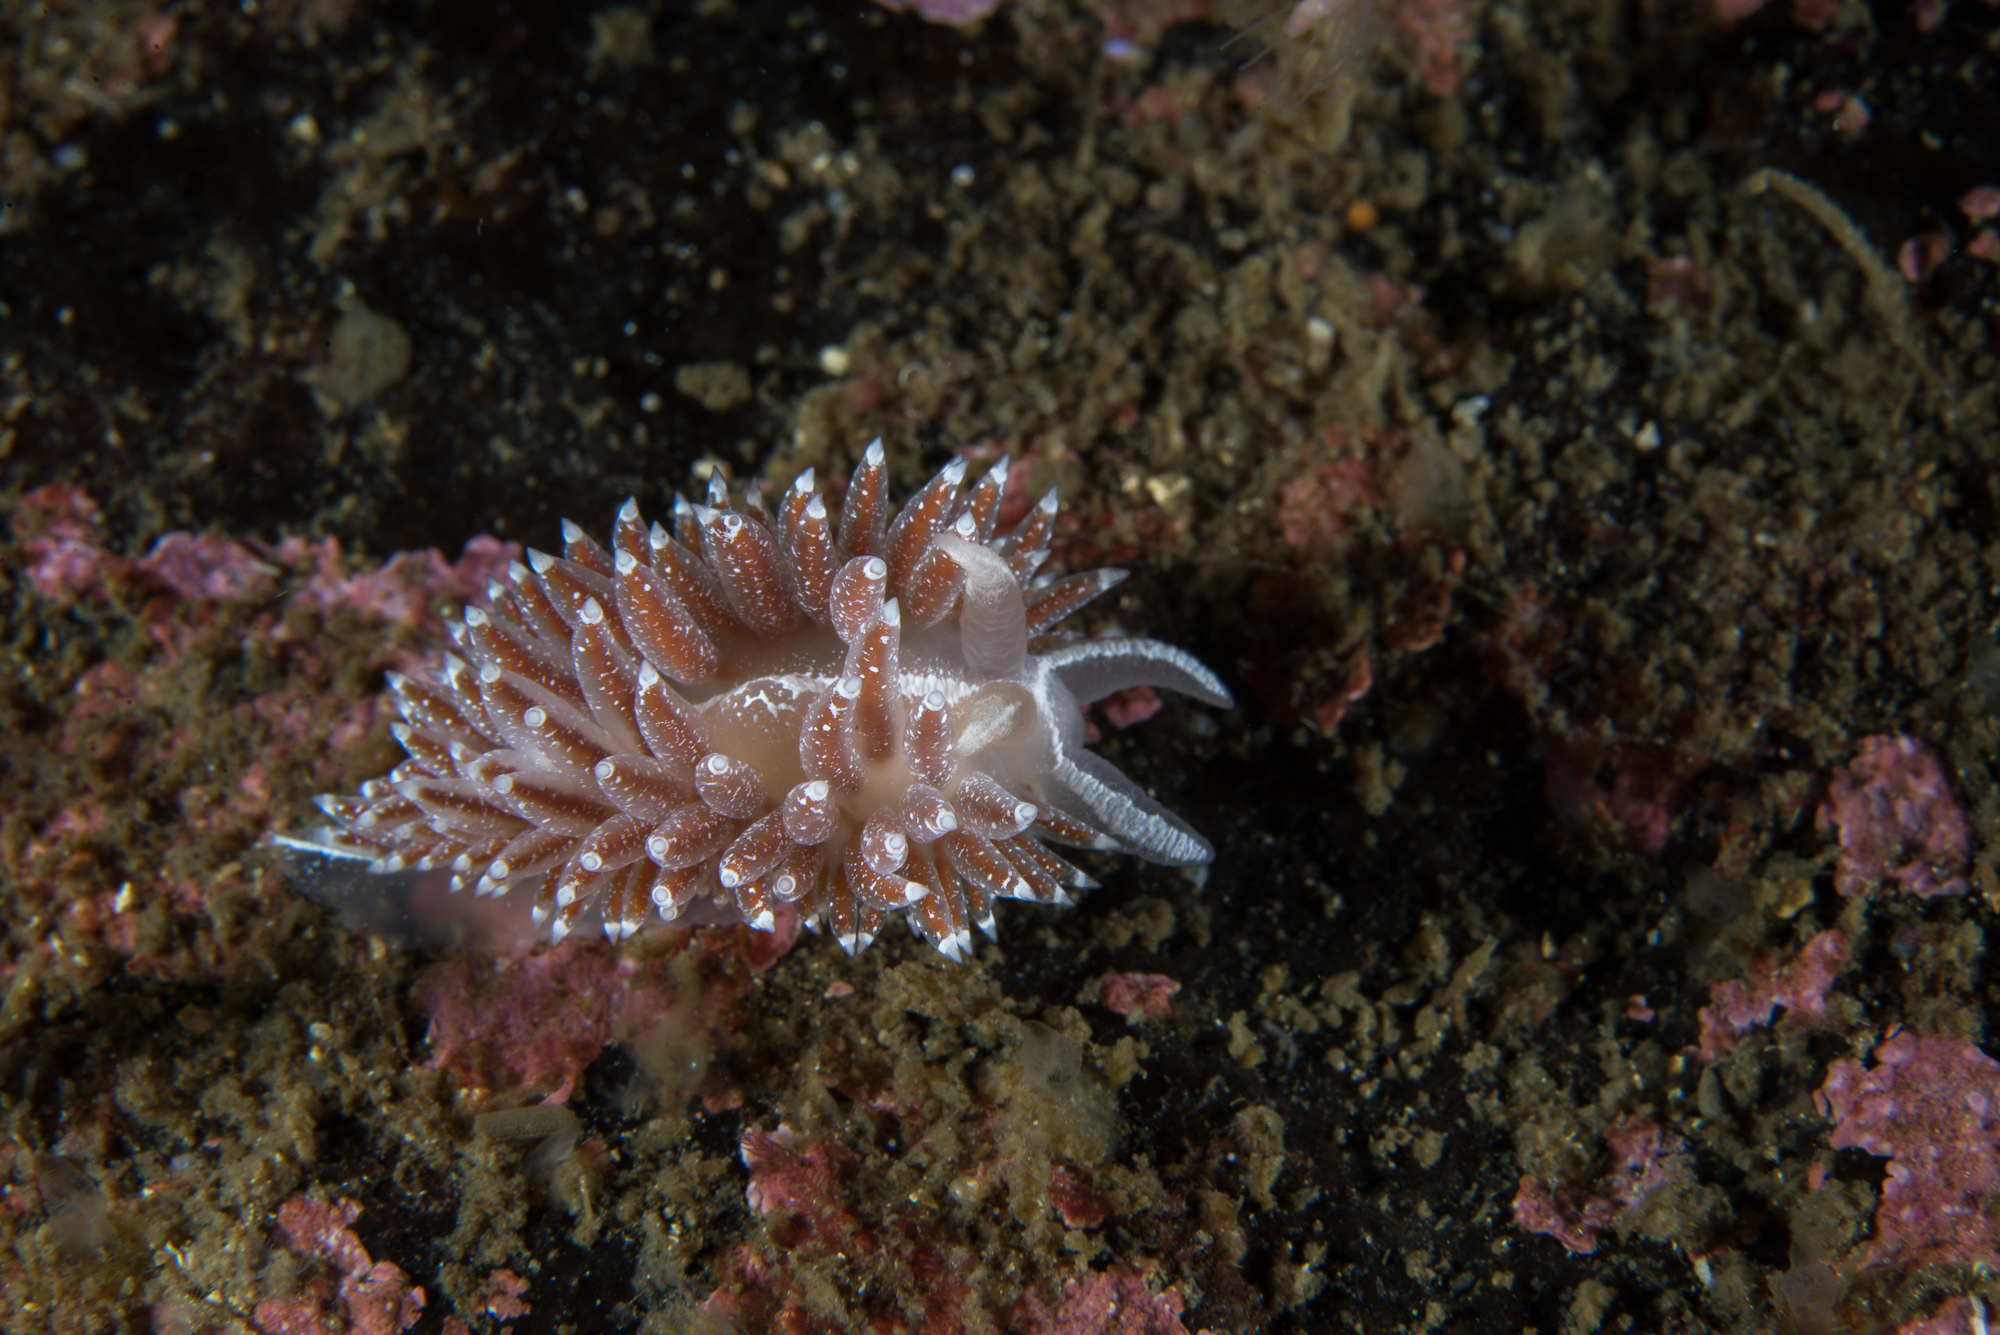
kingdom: Animalia
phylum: Mollusca
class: Gastropoda
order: Nudibranchia
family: Coryphellidae
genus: Coryphella
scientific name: Coryphella orjani
